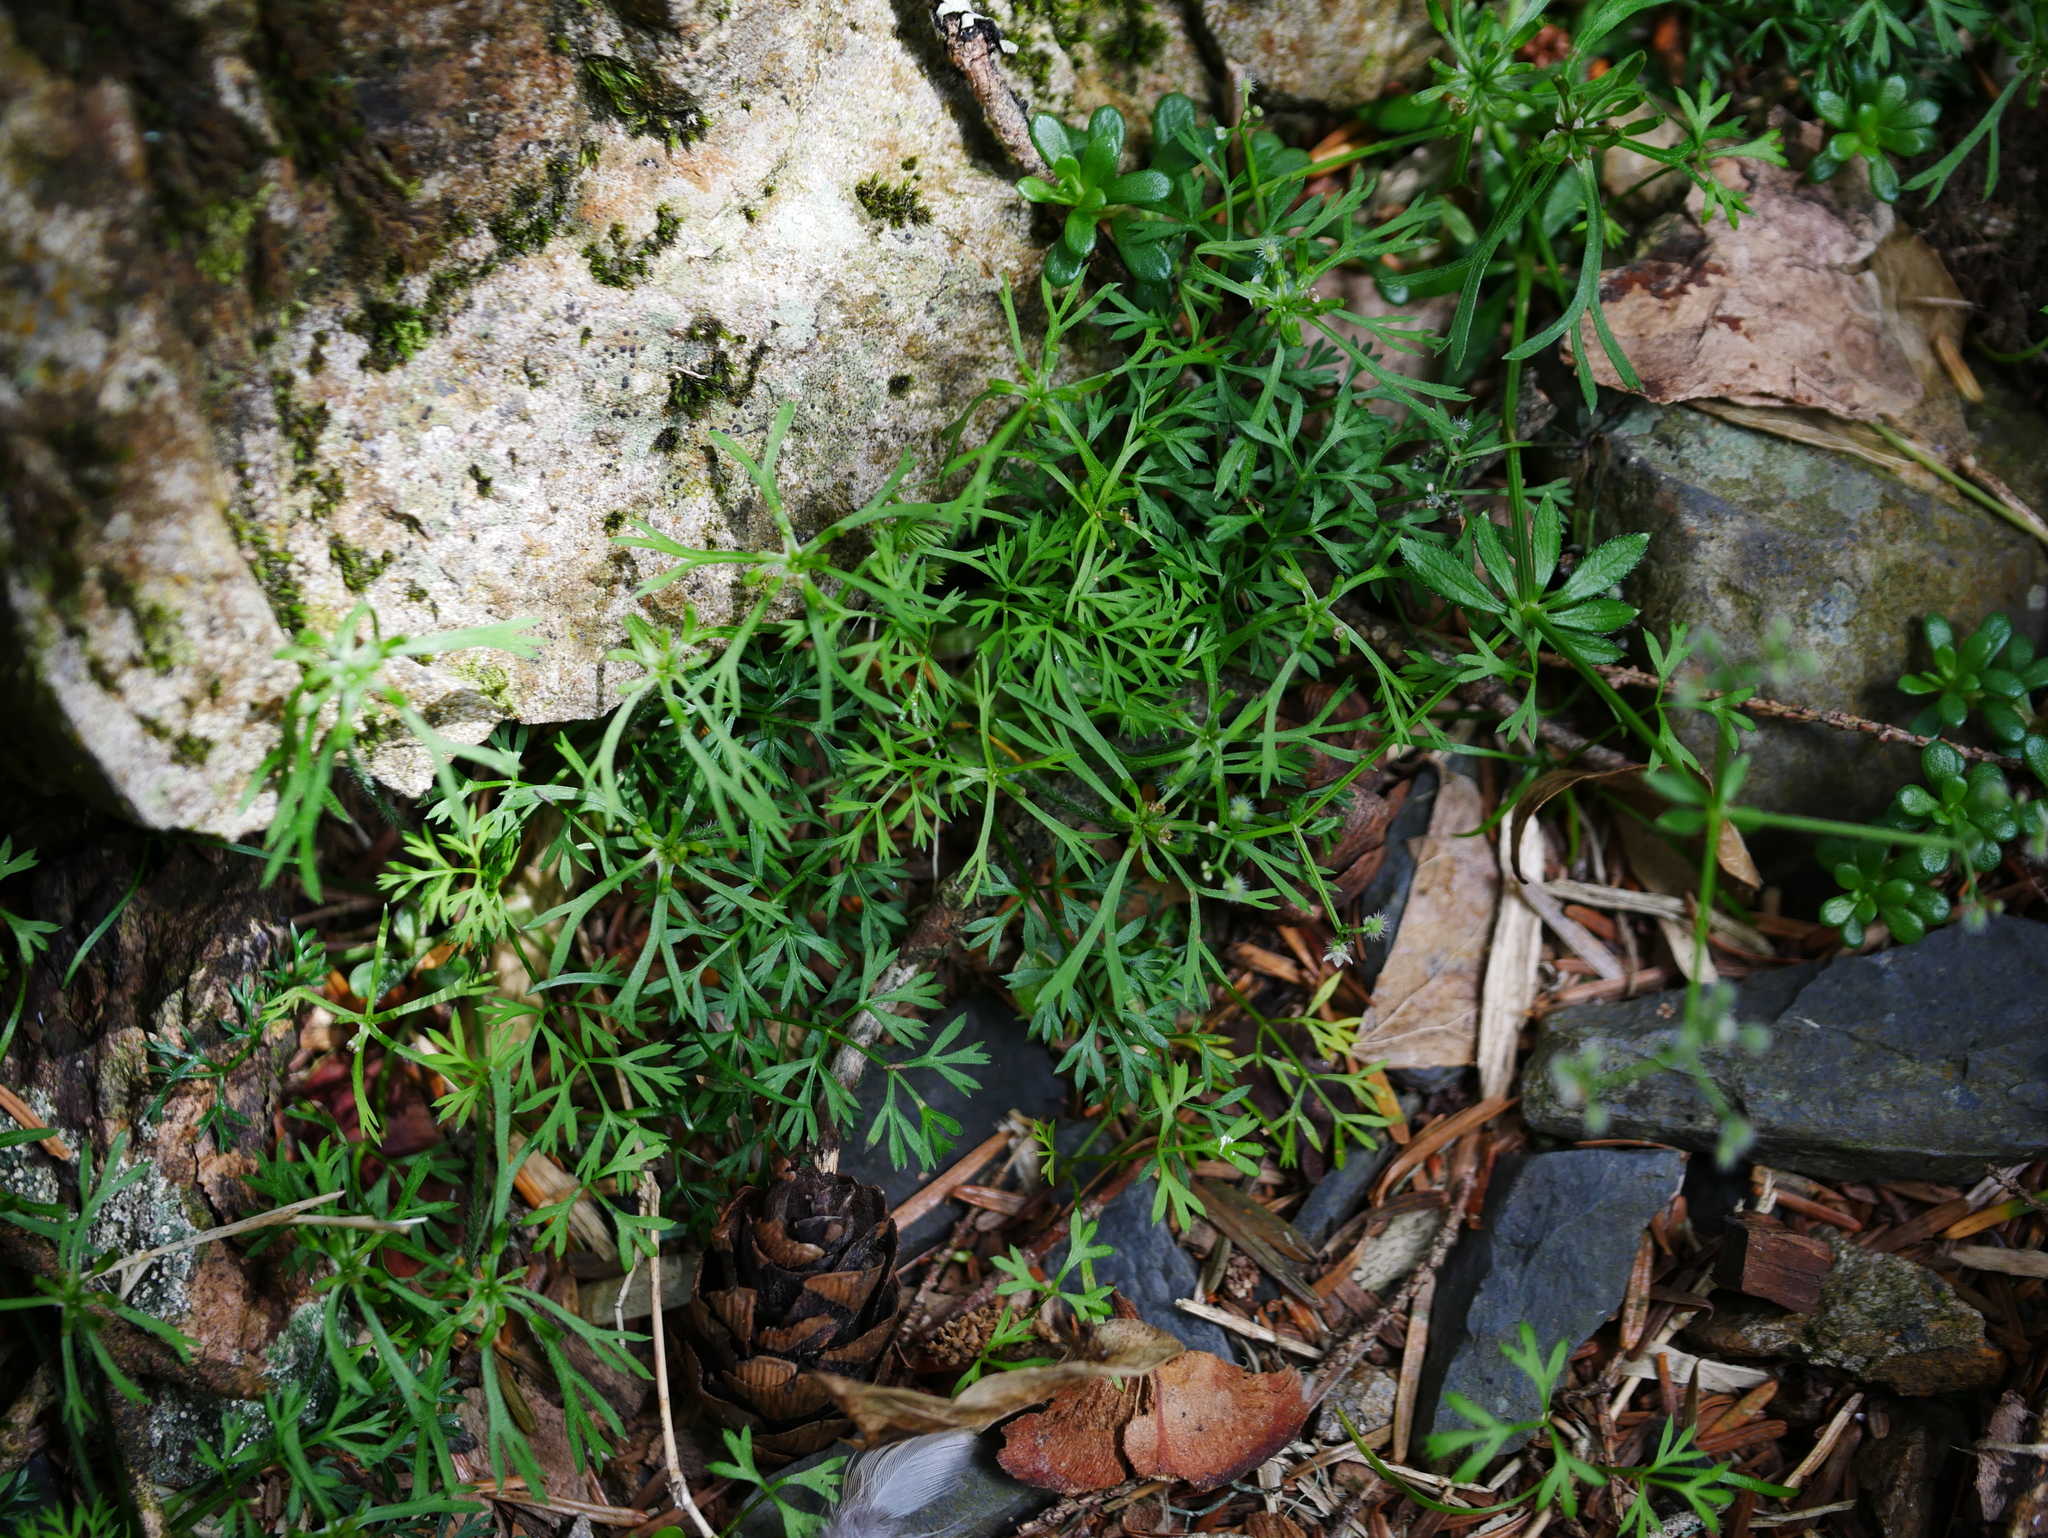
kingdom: Plantae
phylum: Tracheophyta
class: Magnoliopsida
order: Apiales
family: Apiaceae
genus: Chaerophyllum
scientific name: Chaerophyllum involucratum
